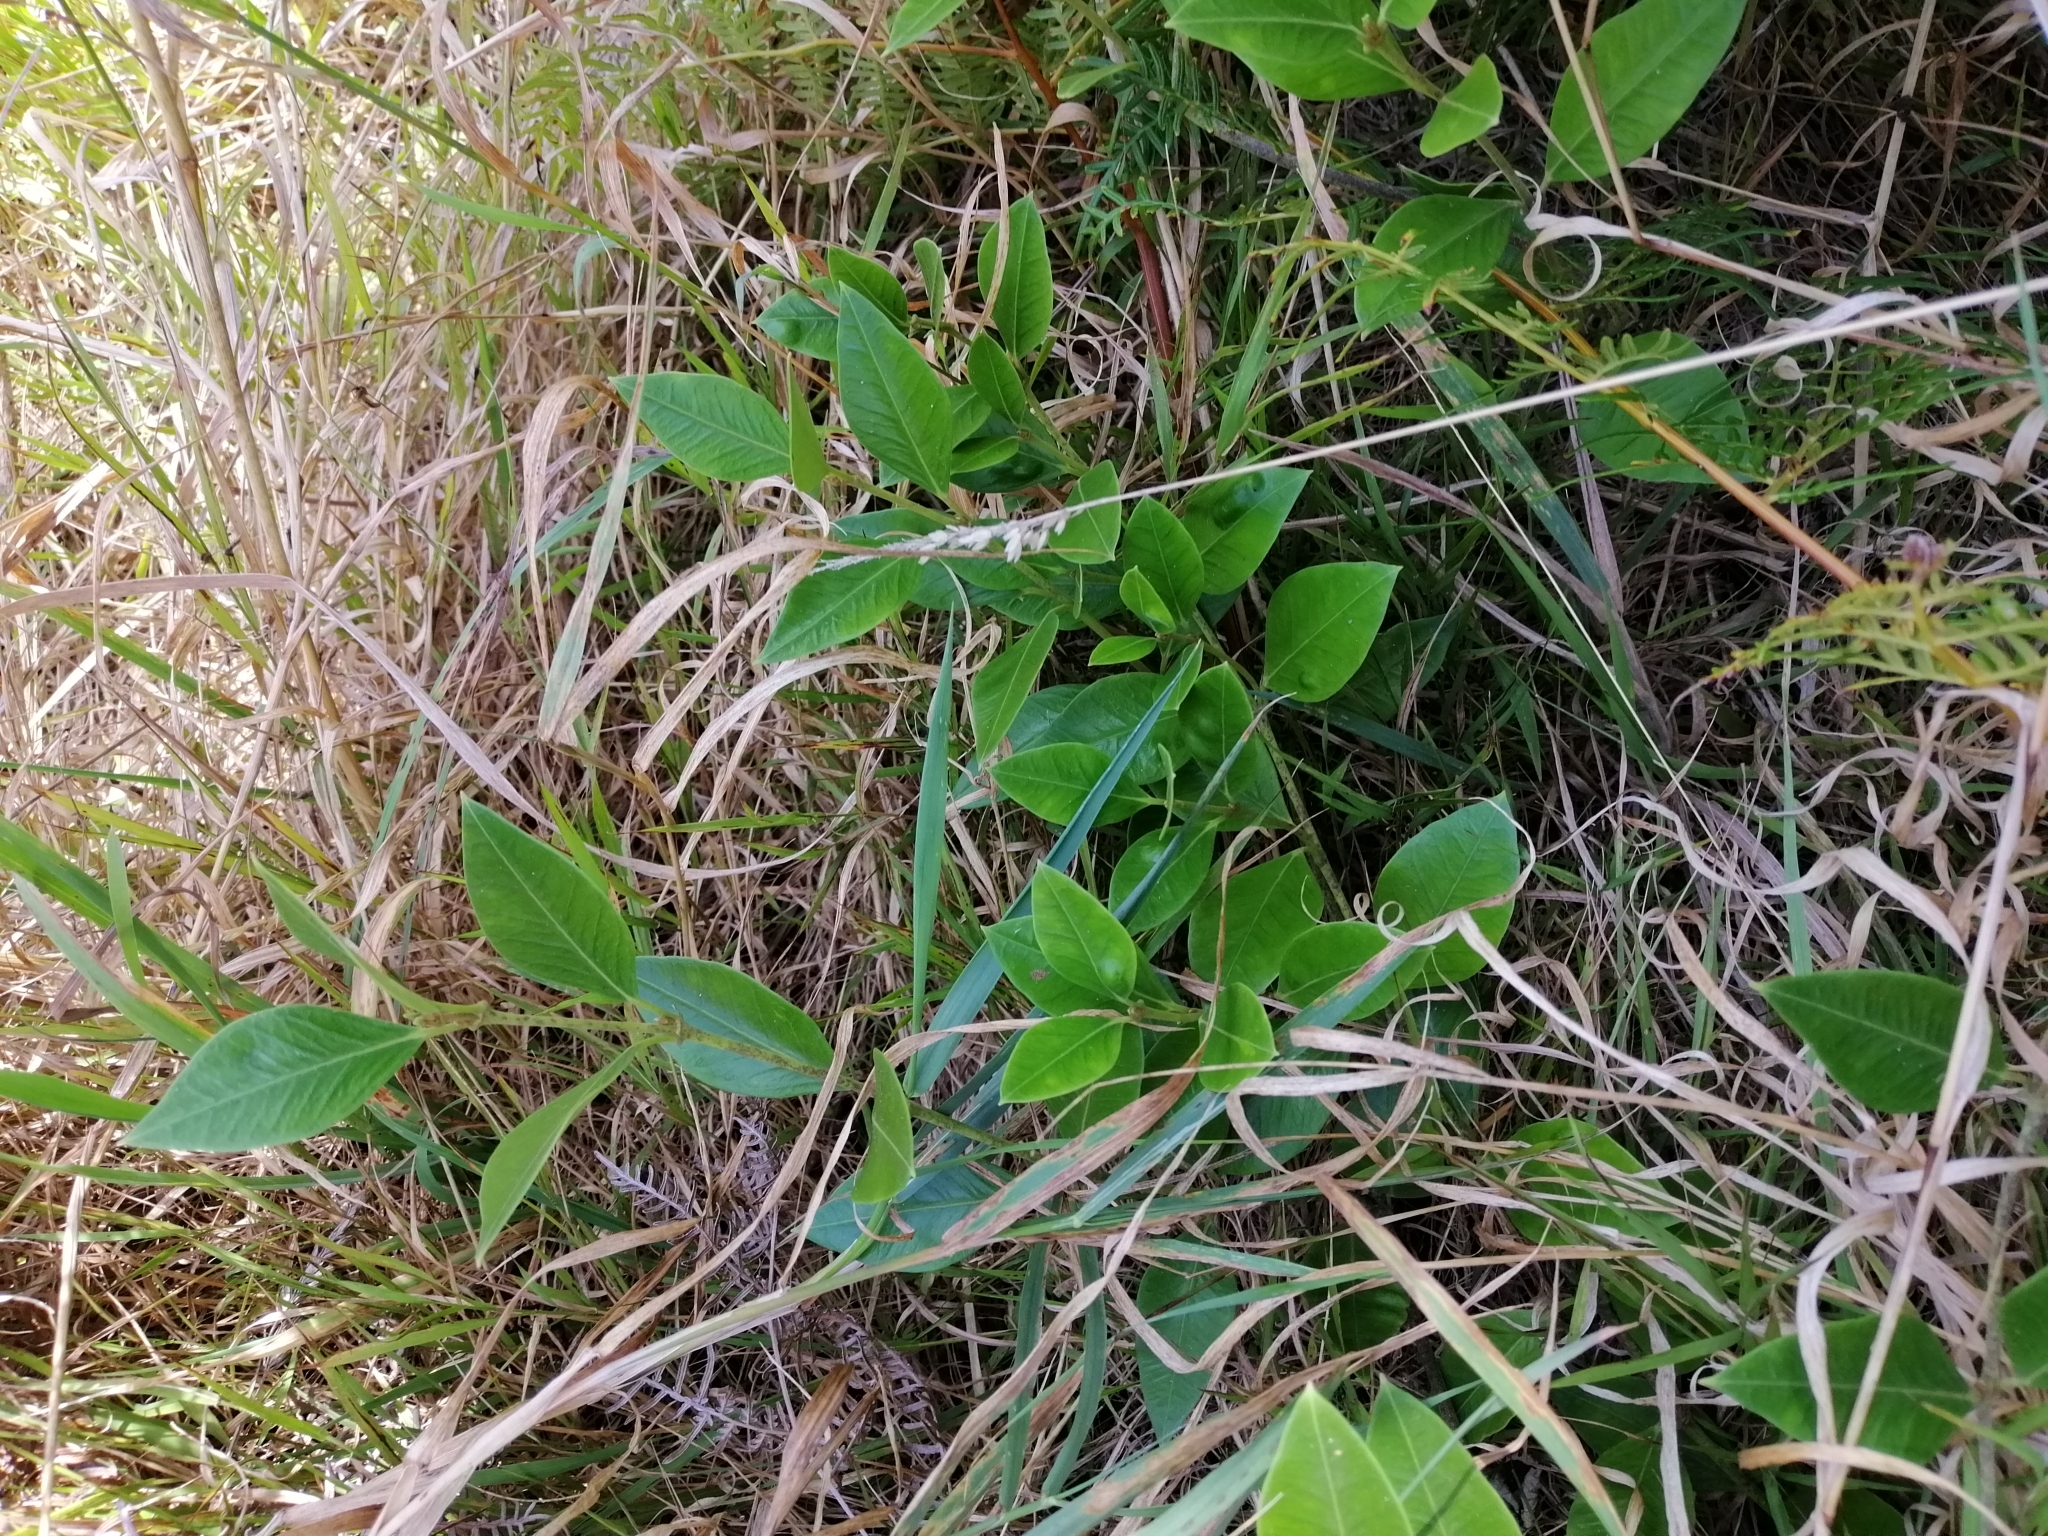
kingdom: Plantae
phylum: Tracheophyta
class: Magnoliopsida
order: Gentianales
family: Apocynaceae
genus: Parsonsia
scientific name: Parsonsia heterophylla
